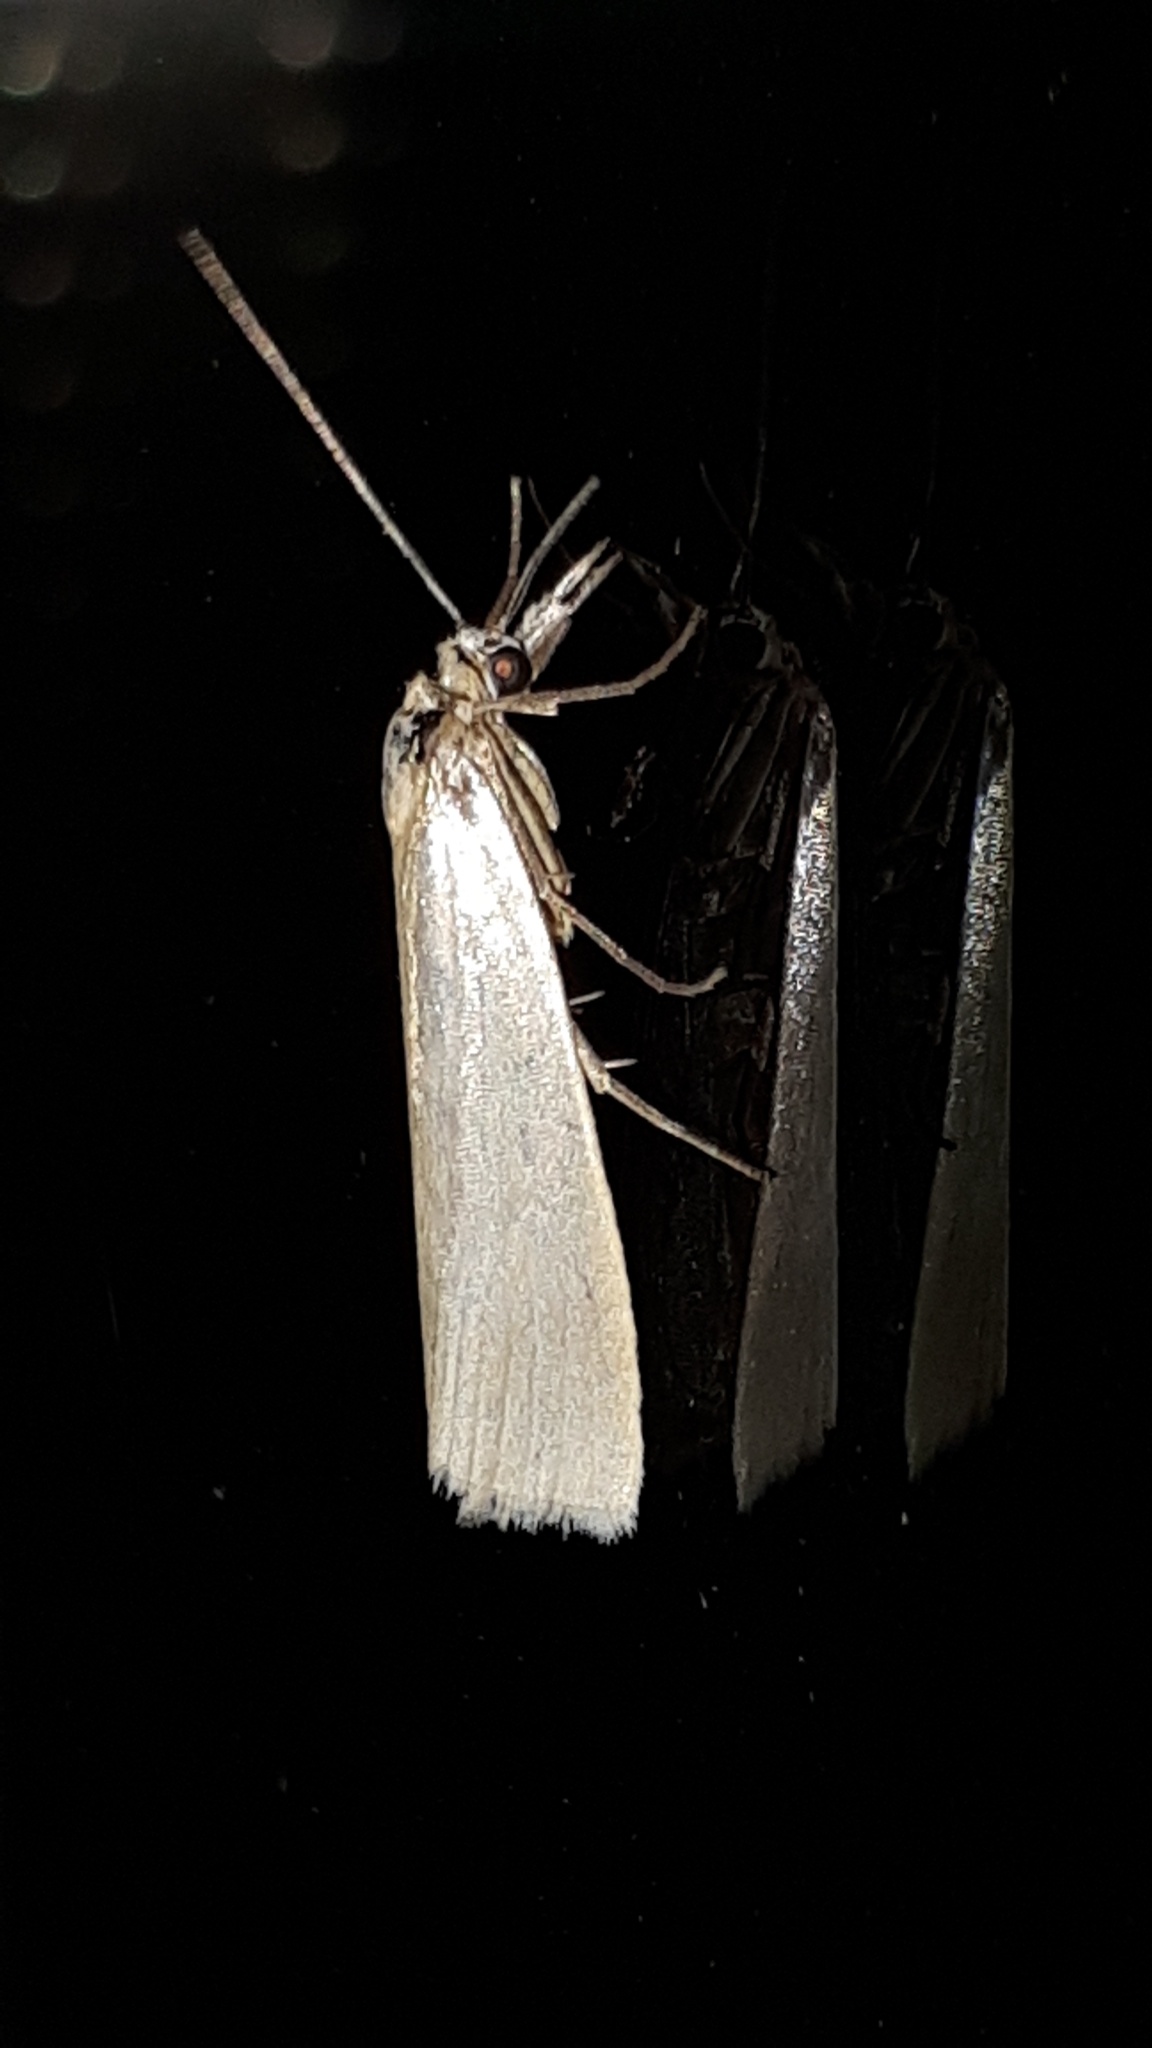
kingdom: Animalia
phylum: Arthropoda
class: Insecta
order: Lepidoptera
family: Crambidae
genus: Crambus
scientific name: Crambus perlellus
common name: Yellow satin veneer
